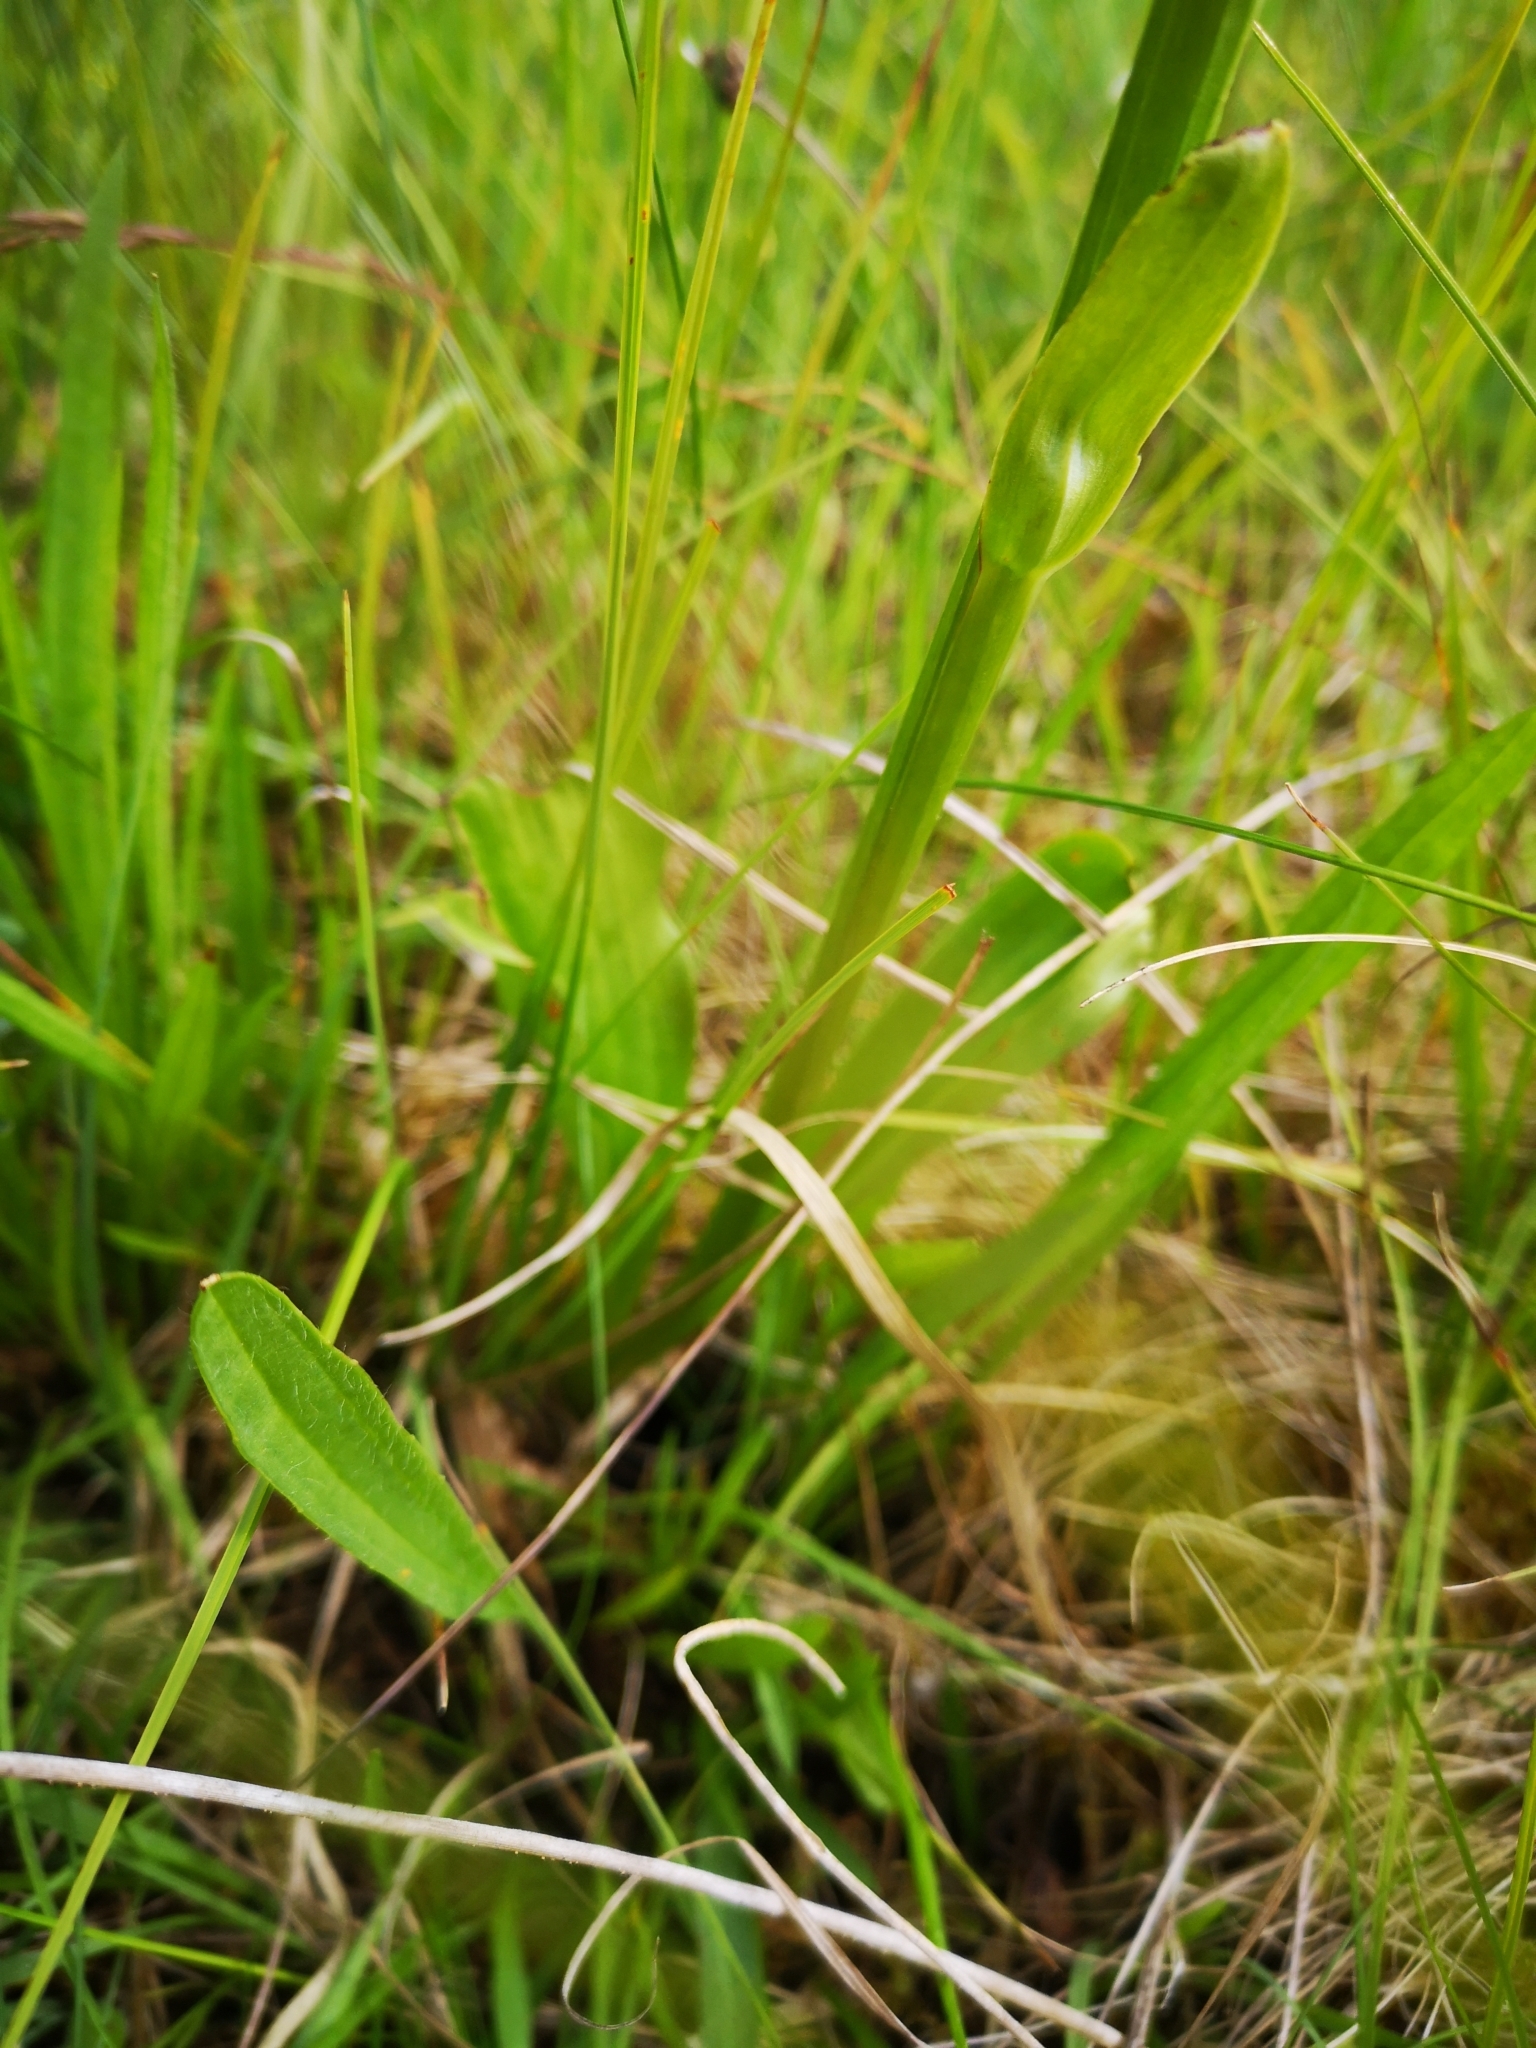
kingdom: Plantae
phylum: Tracheophyta
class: Liliopsida
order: Asparagales
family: Orchidaceae
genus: Platanthera
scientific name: Platanthera chlorantha
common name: Greater butterfly-orchid
